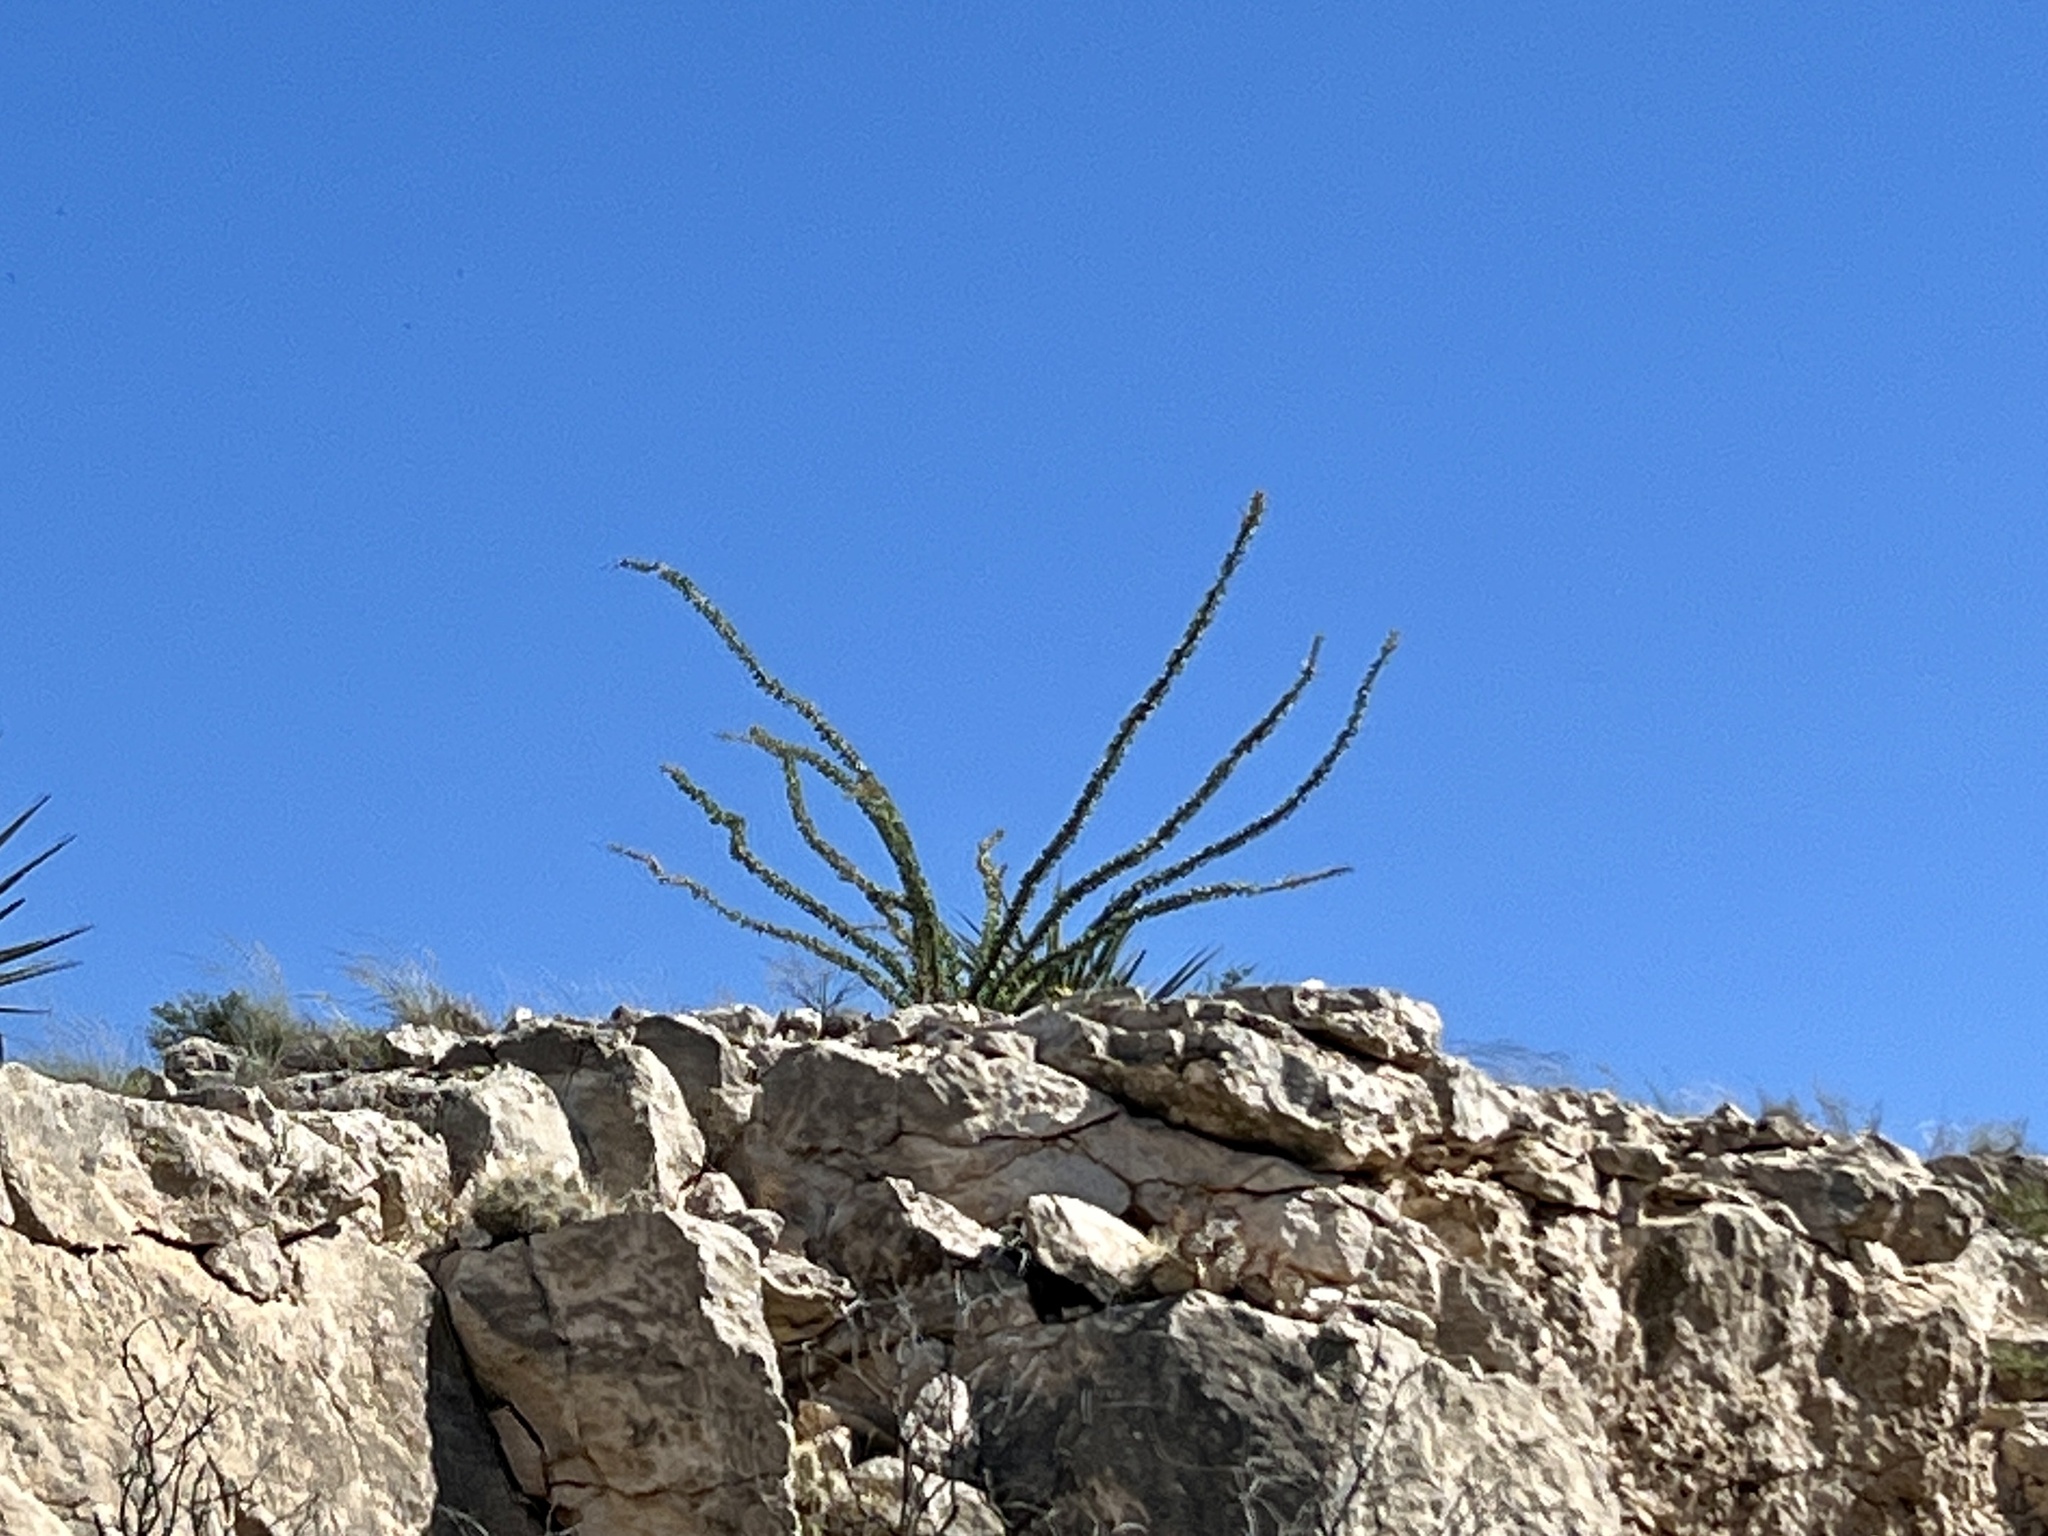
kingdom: Plantae
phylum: Tracheophyta
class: Magnoliopsida
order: Ericales
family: Fouquieriaceae
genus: Fouquieria
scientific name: Fouquieria splendens
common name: Vine-cactus
